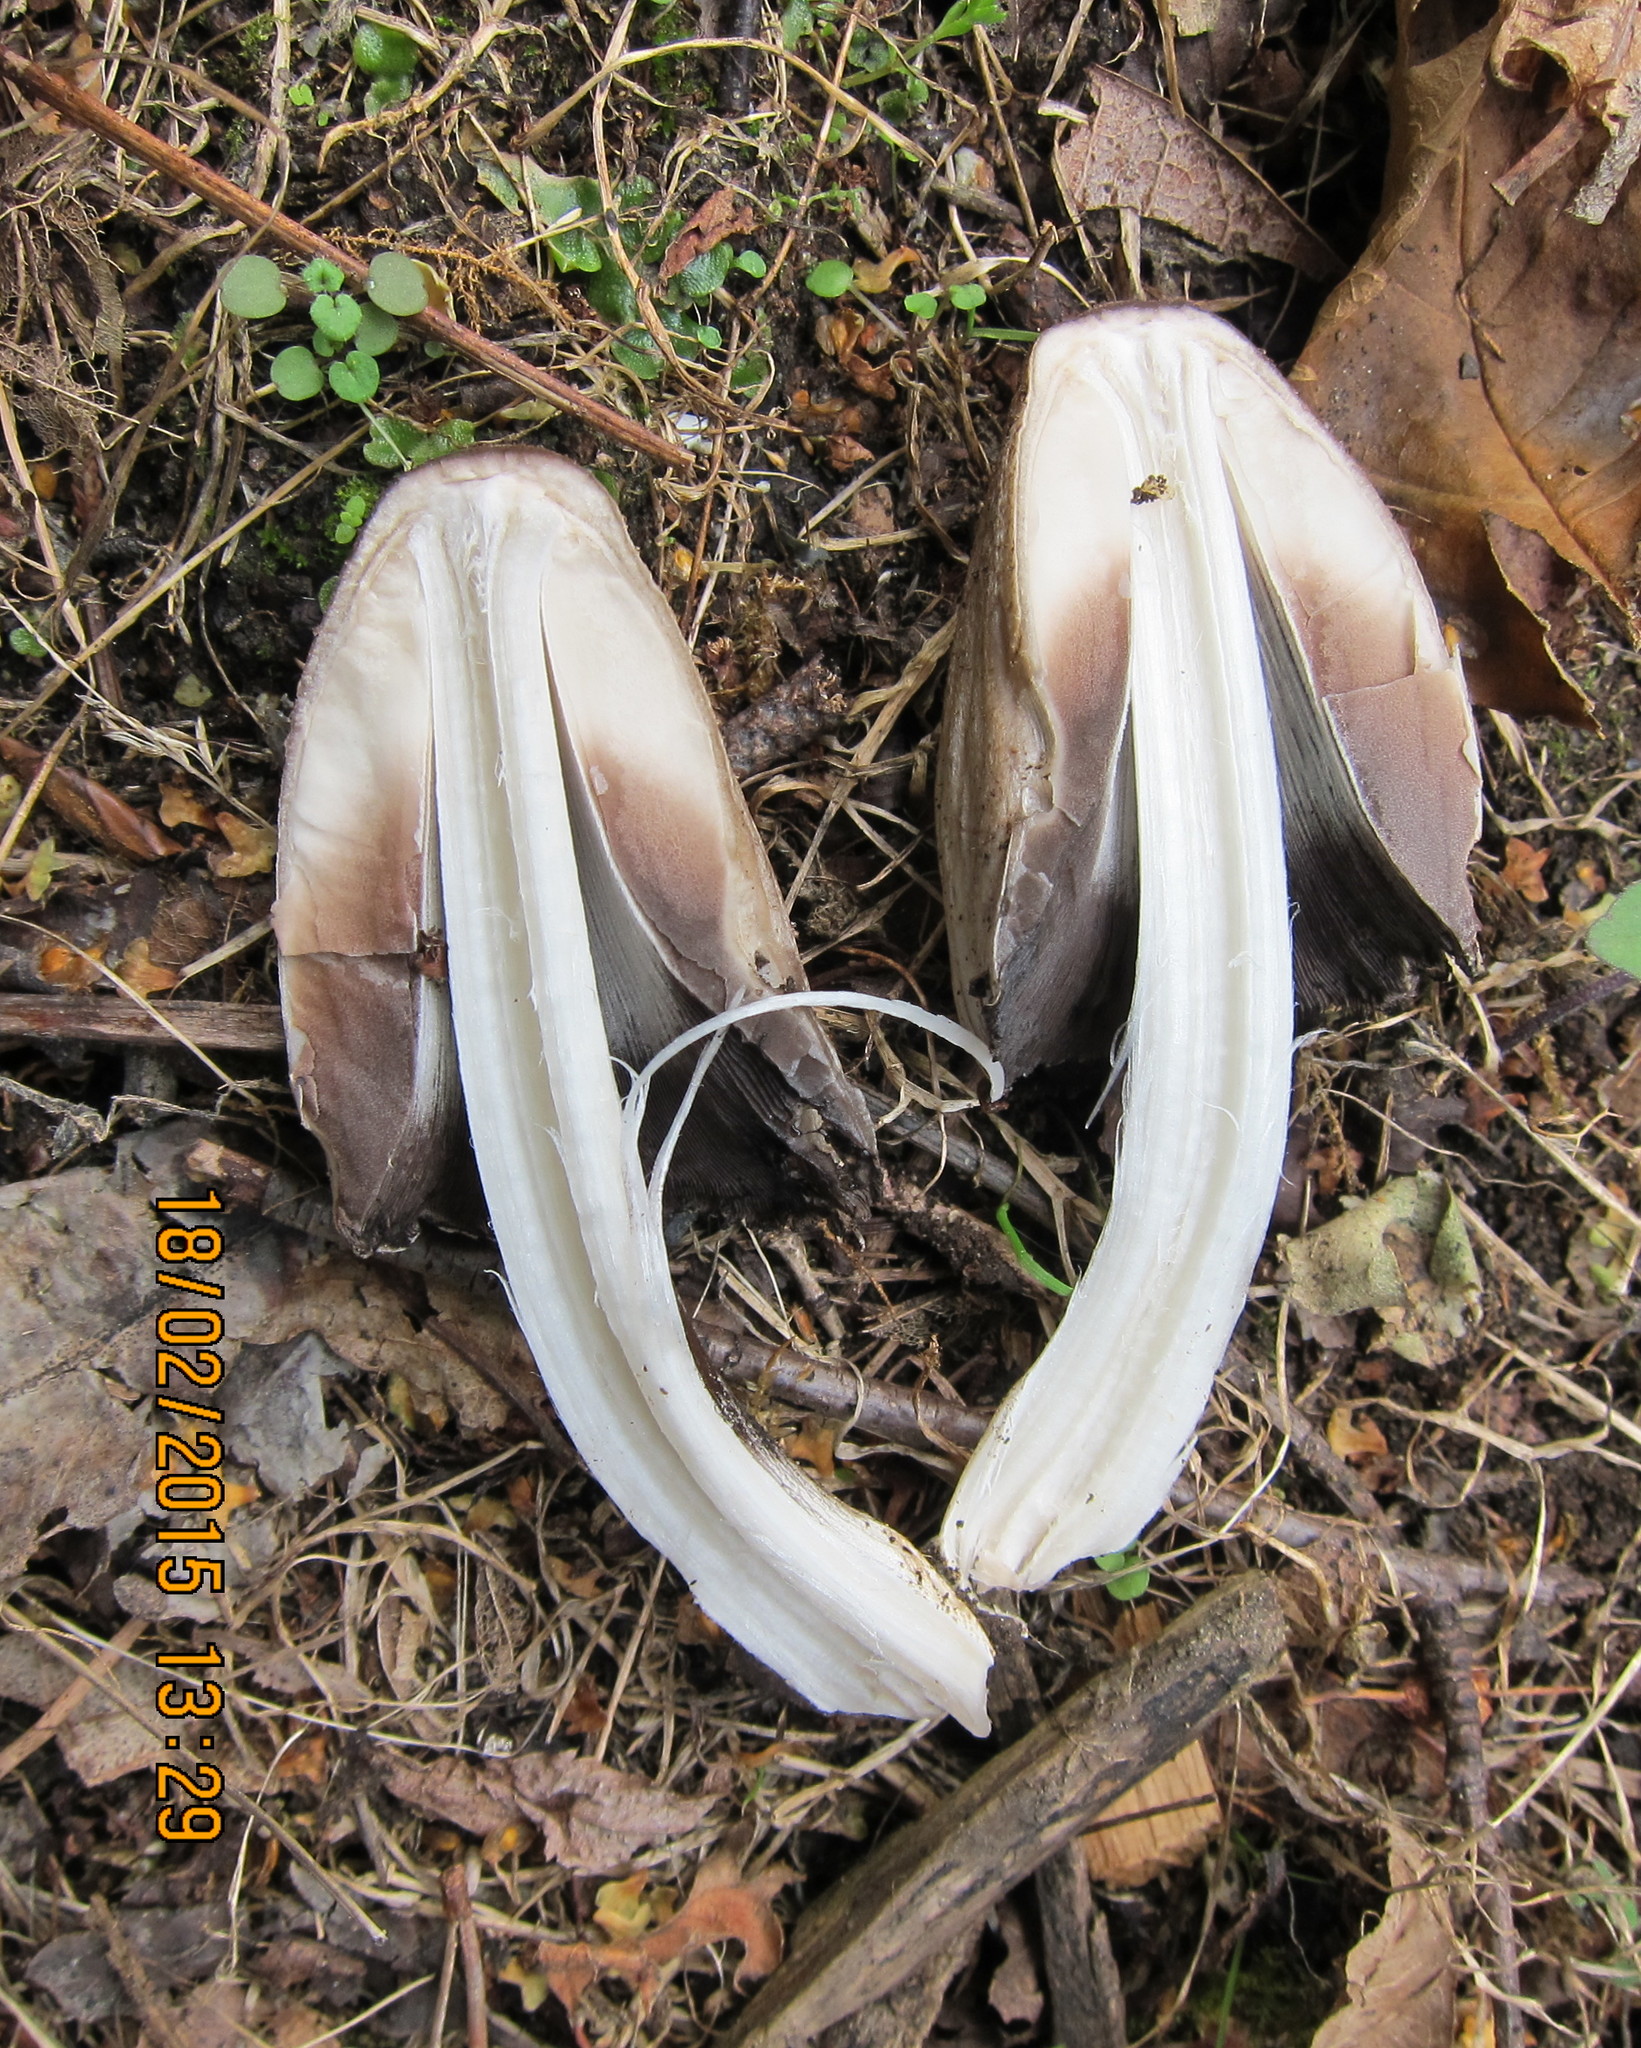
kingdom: Fungi
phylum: Basidiomycota
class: Agaricomycetes
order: Agaricales
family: Psathyrellaceae
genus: Coprinopsis
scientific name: Coprinopsis atramentaria
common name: Common ink-cap
